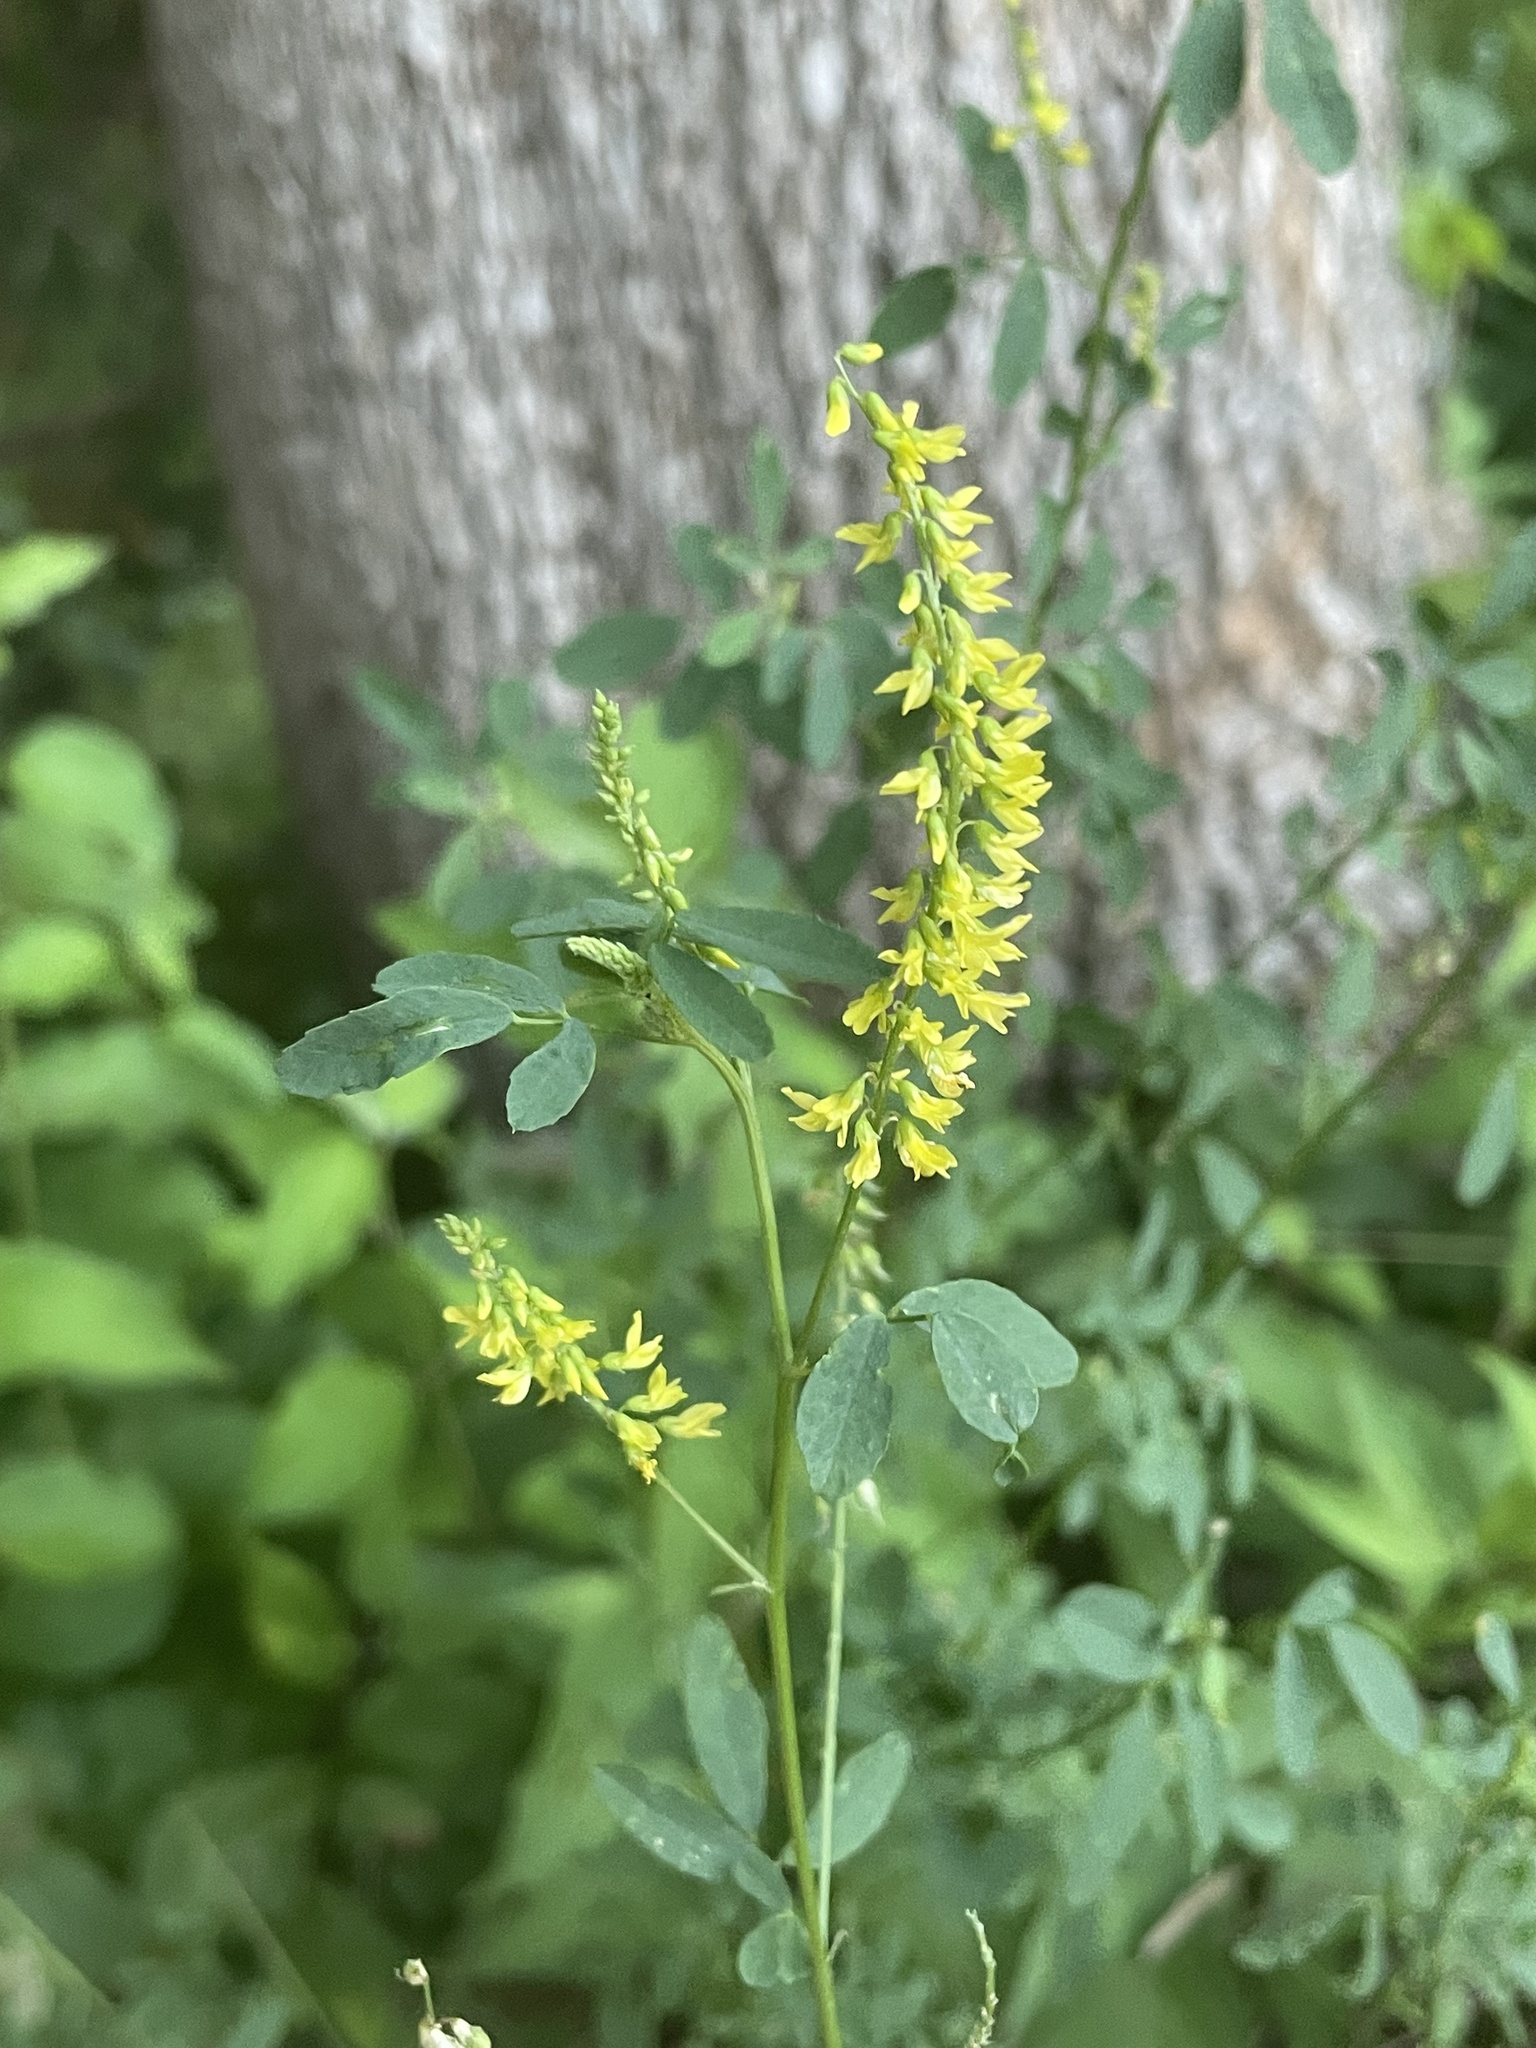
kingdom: Plantae
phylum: Tracheophyta
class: Magnoliopsida
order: Fabales
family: Fabaceae
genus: Melilotus
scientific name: Melilotus officinalis
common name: Sweetclover
